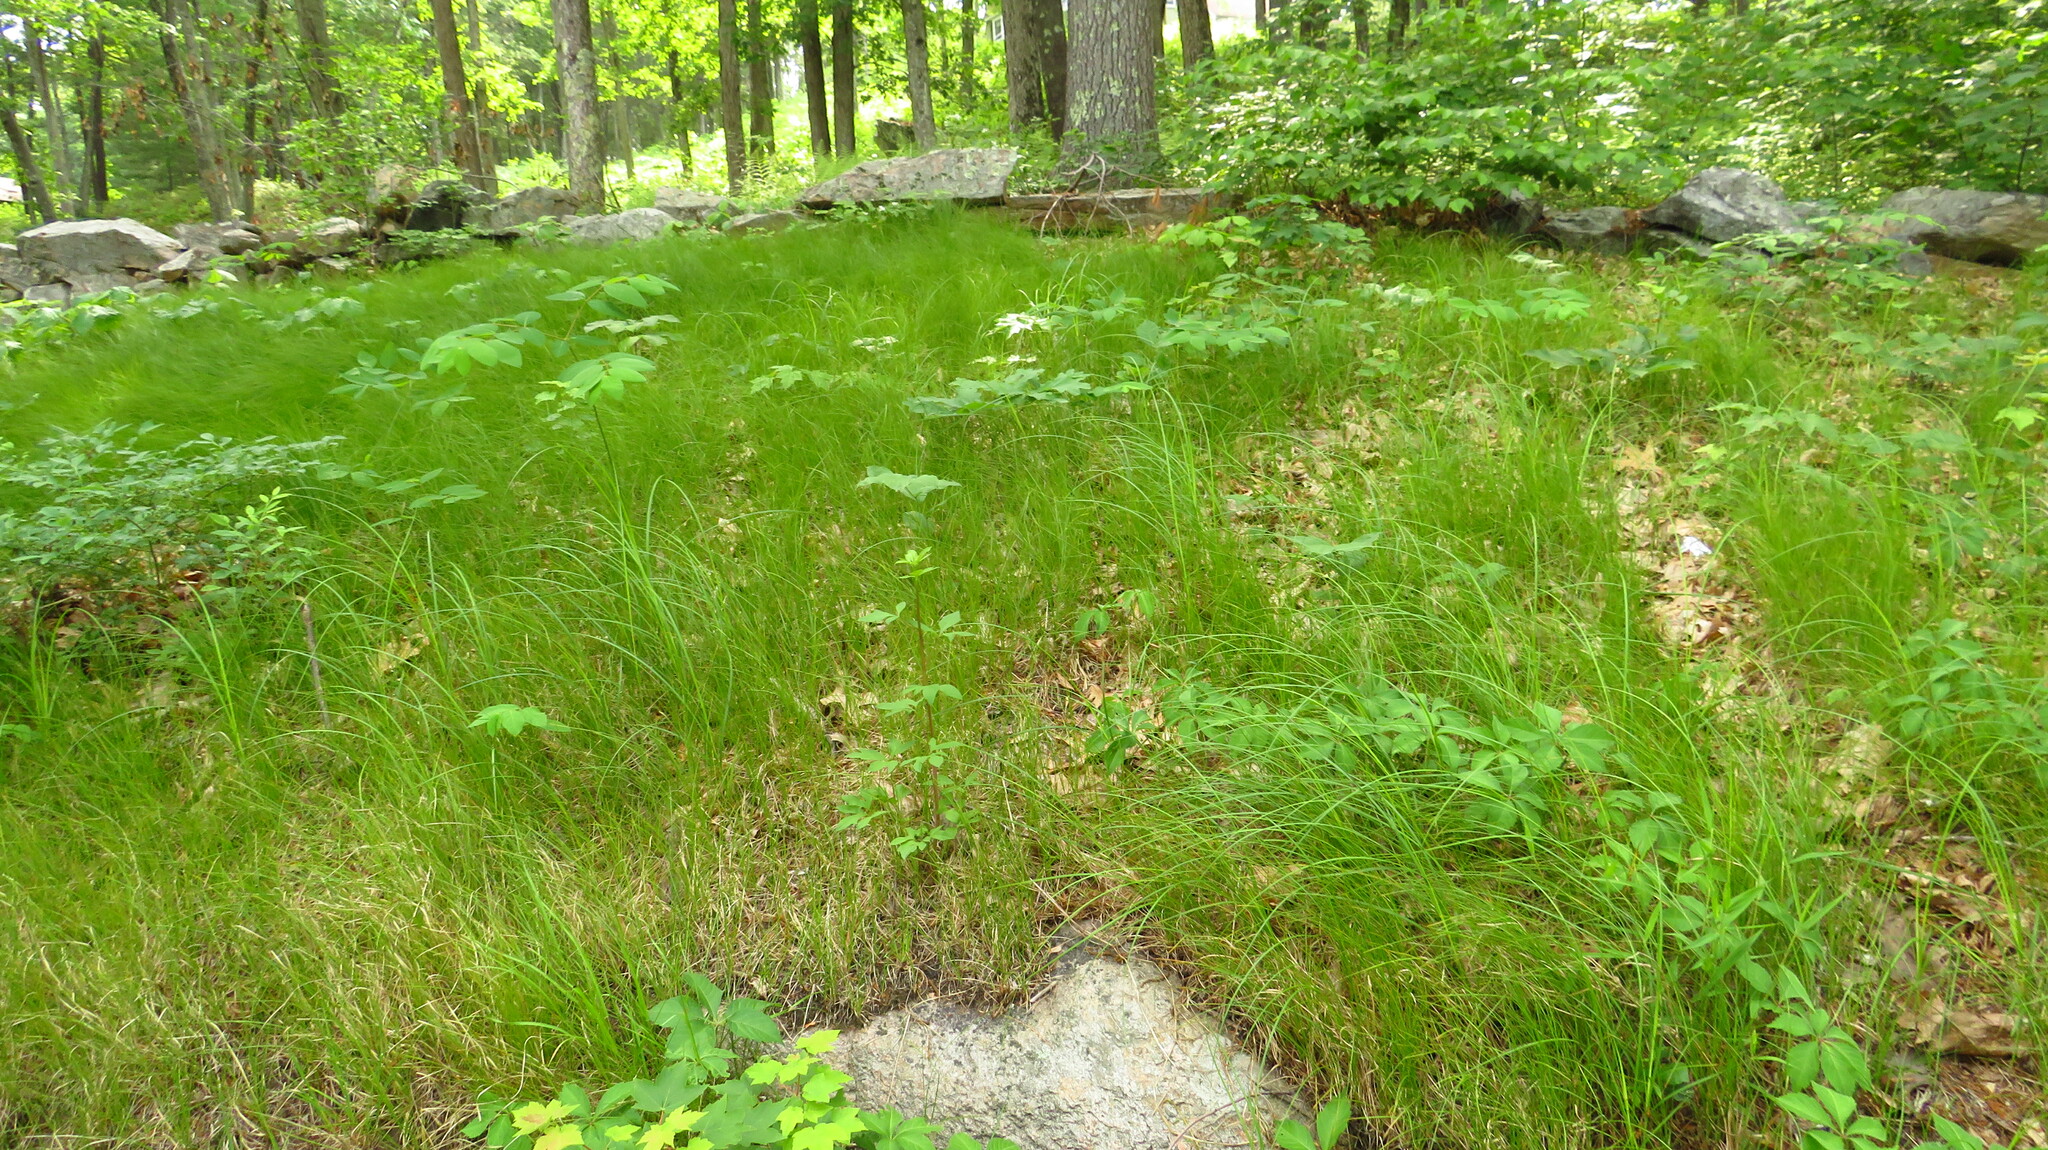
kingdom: Plantae
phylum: Tracheophyta
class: Liliopsida
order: Poales
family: Cyperaceae
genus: Carex
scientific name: Carex vestita
